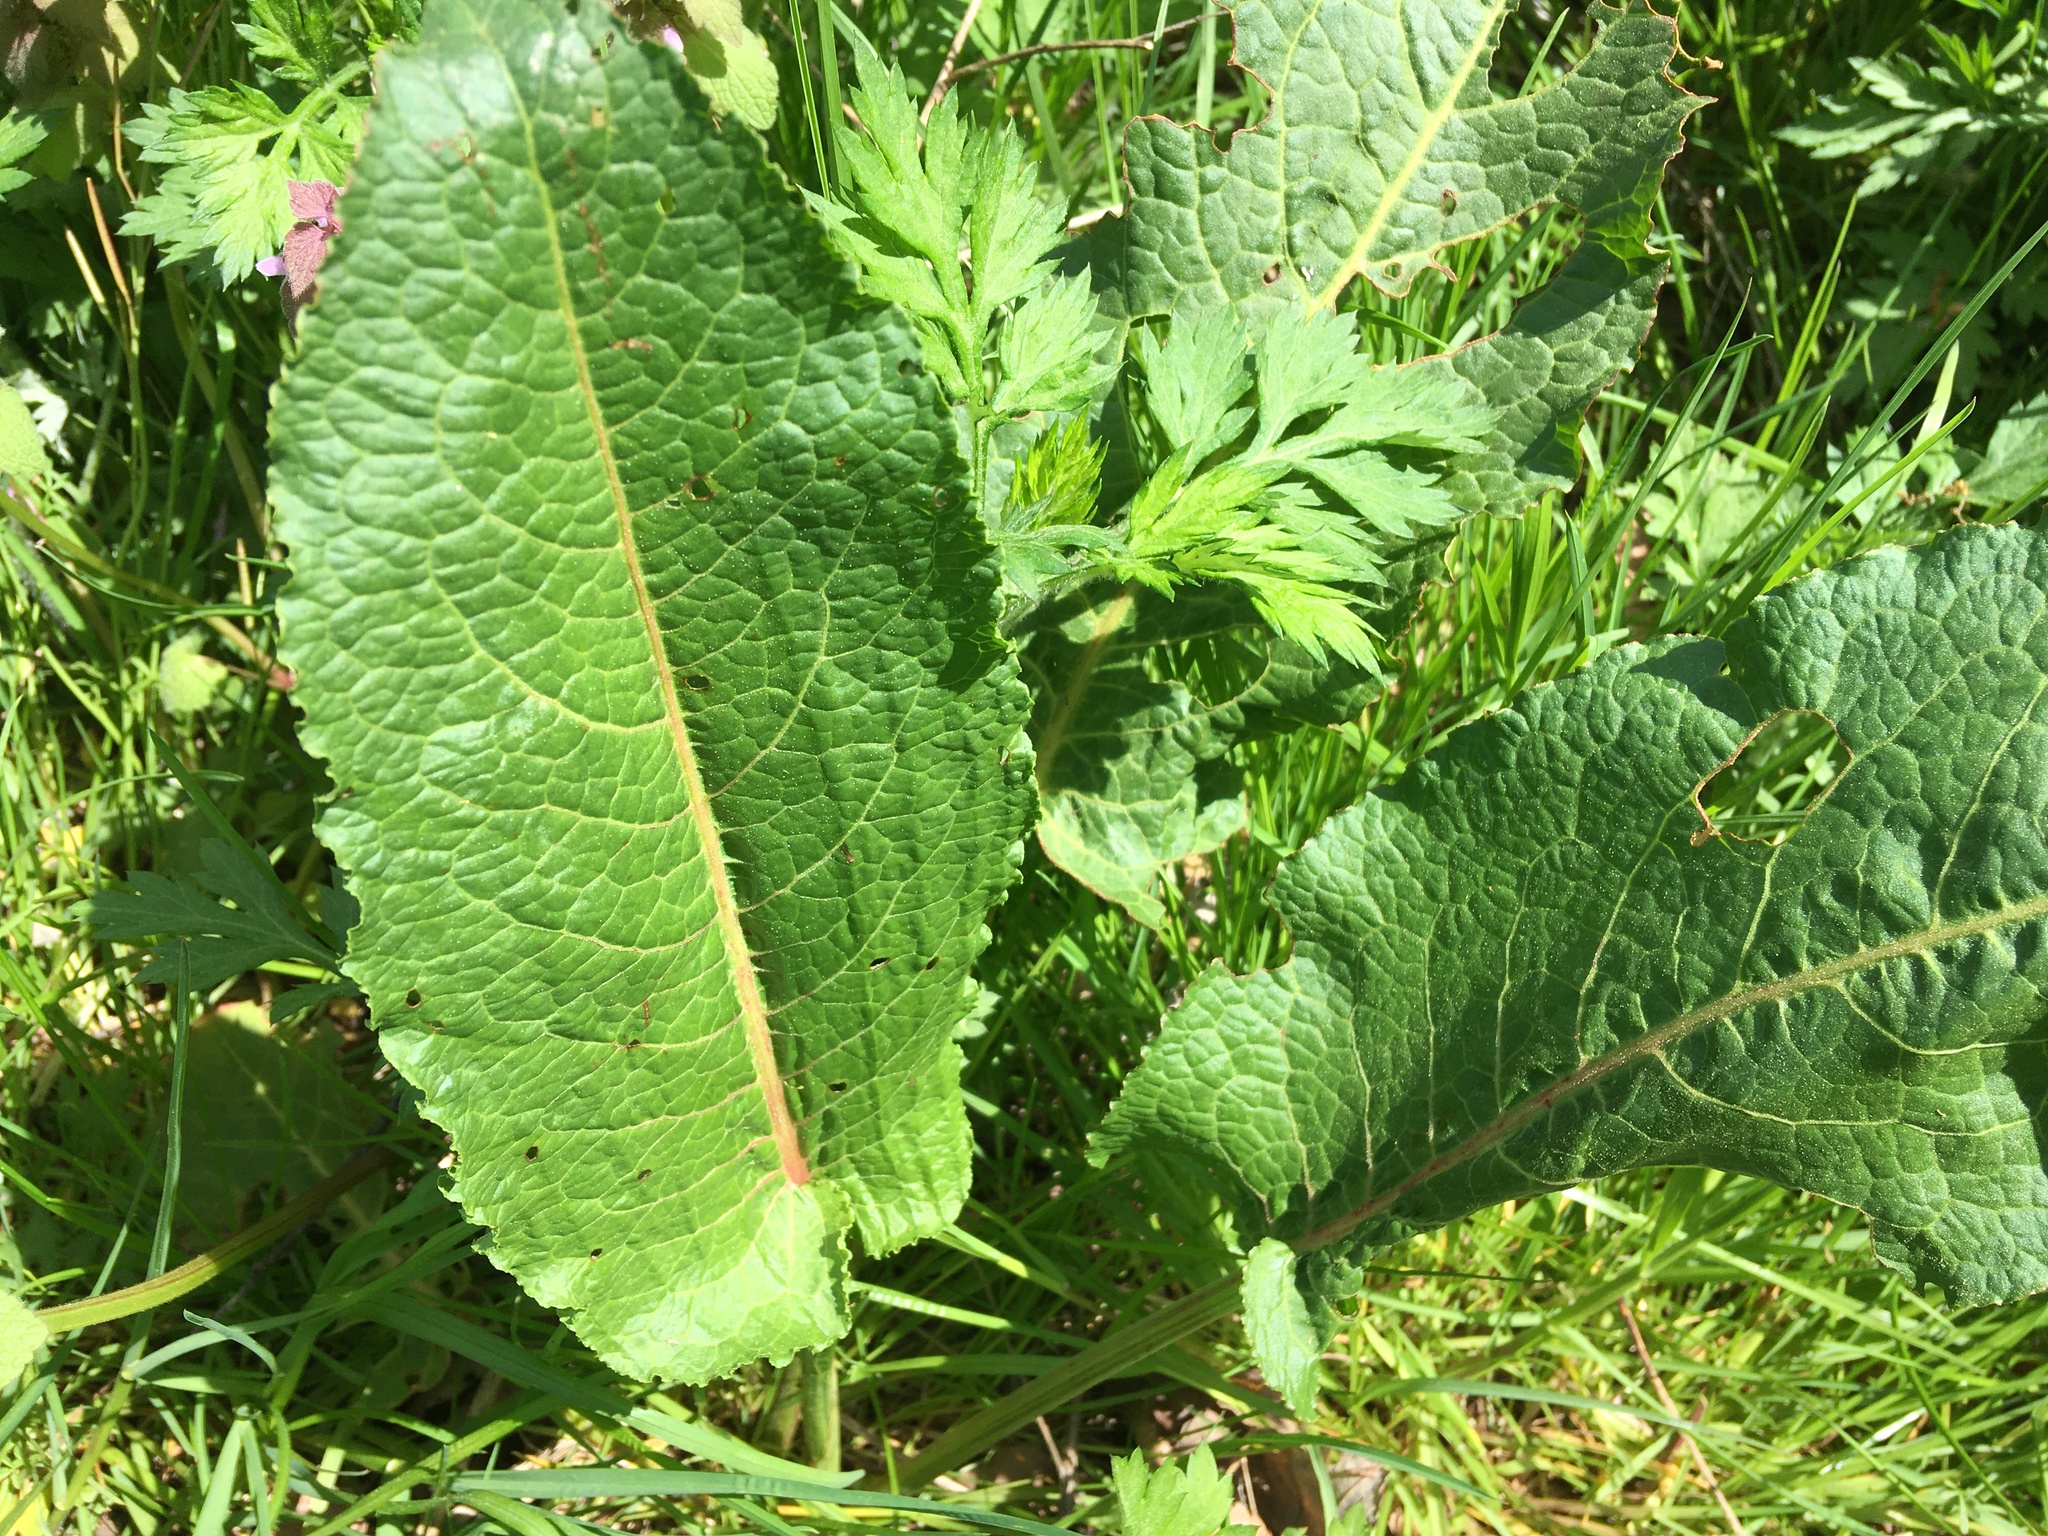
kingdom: Plantae
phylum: Tracheophyta
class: Magnoliopsida
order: Caryophyllales
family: Polygonaceae
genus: Rumex
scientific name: Rumex obtusifolius
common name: Bitter dock
